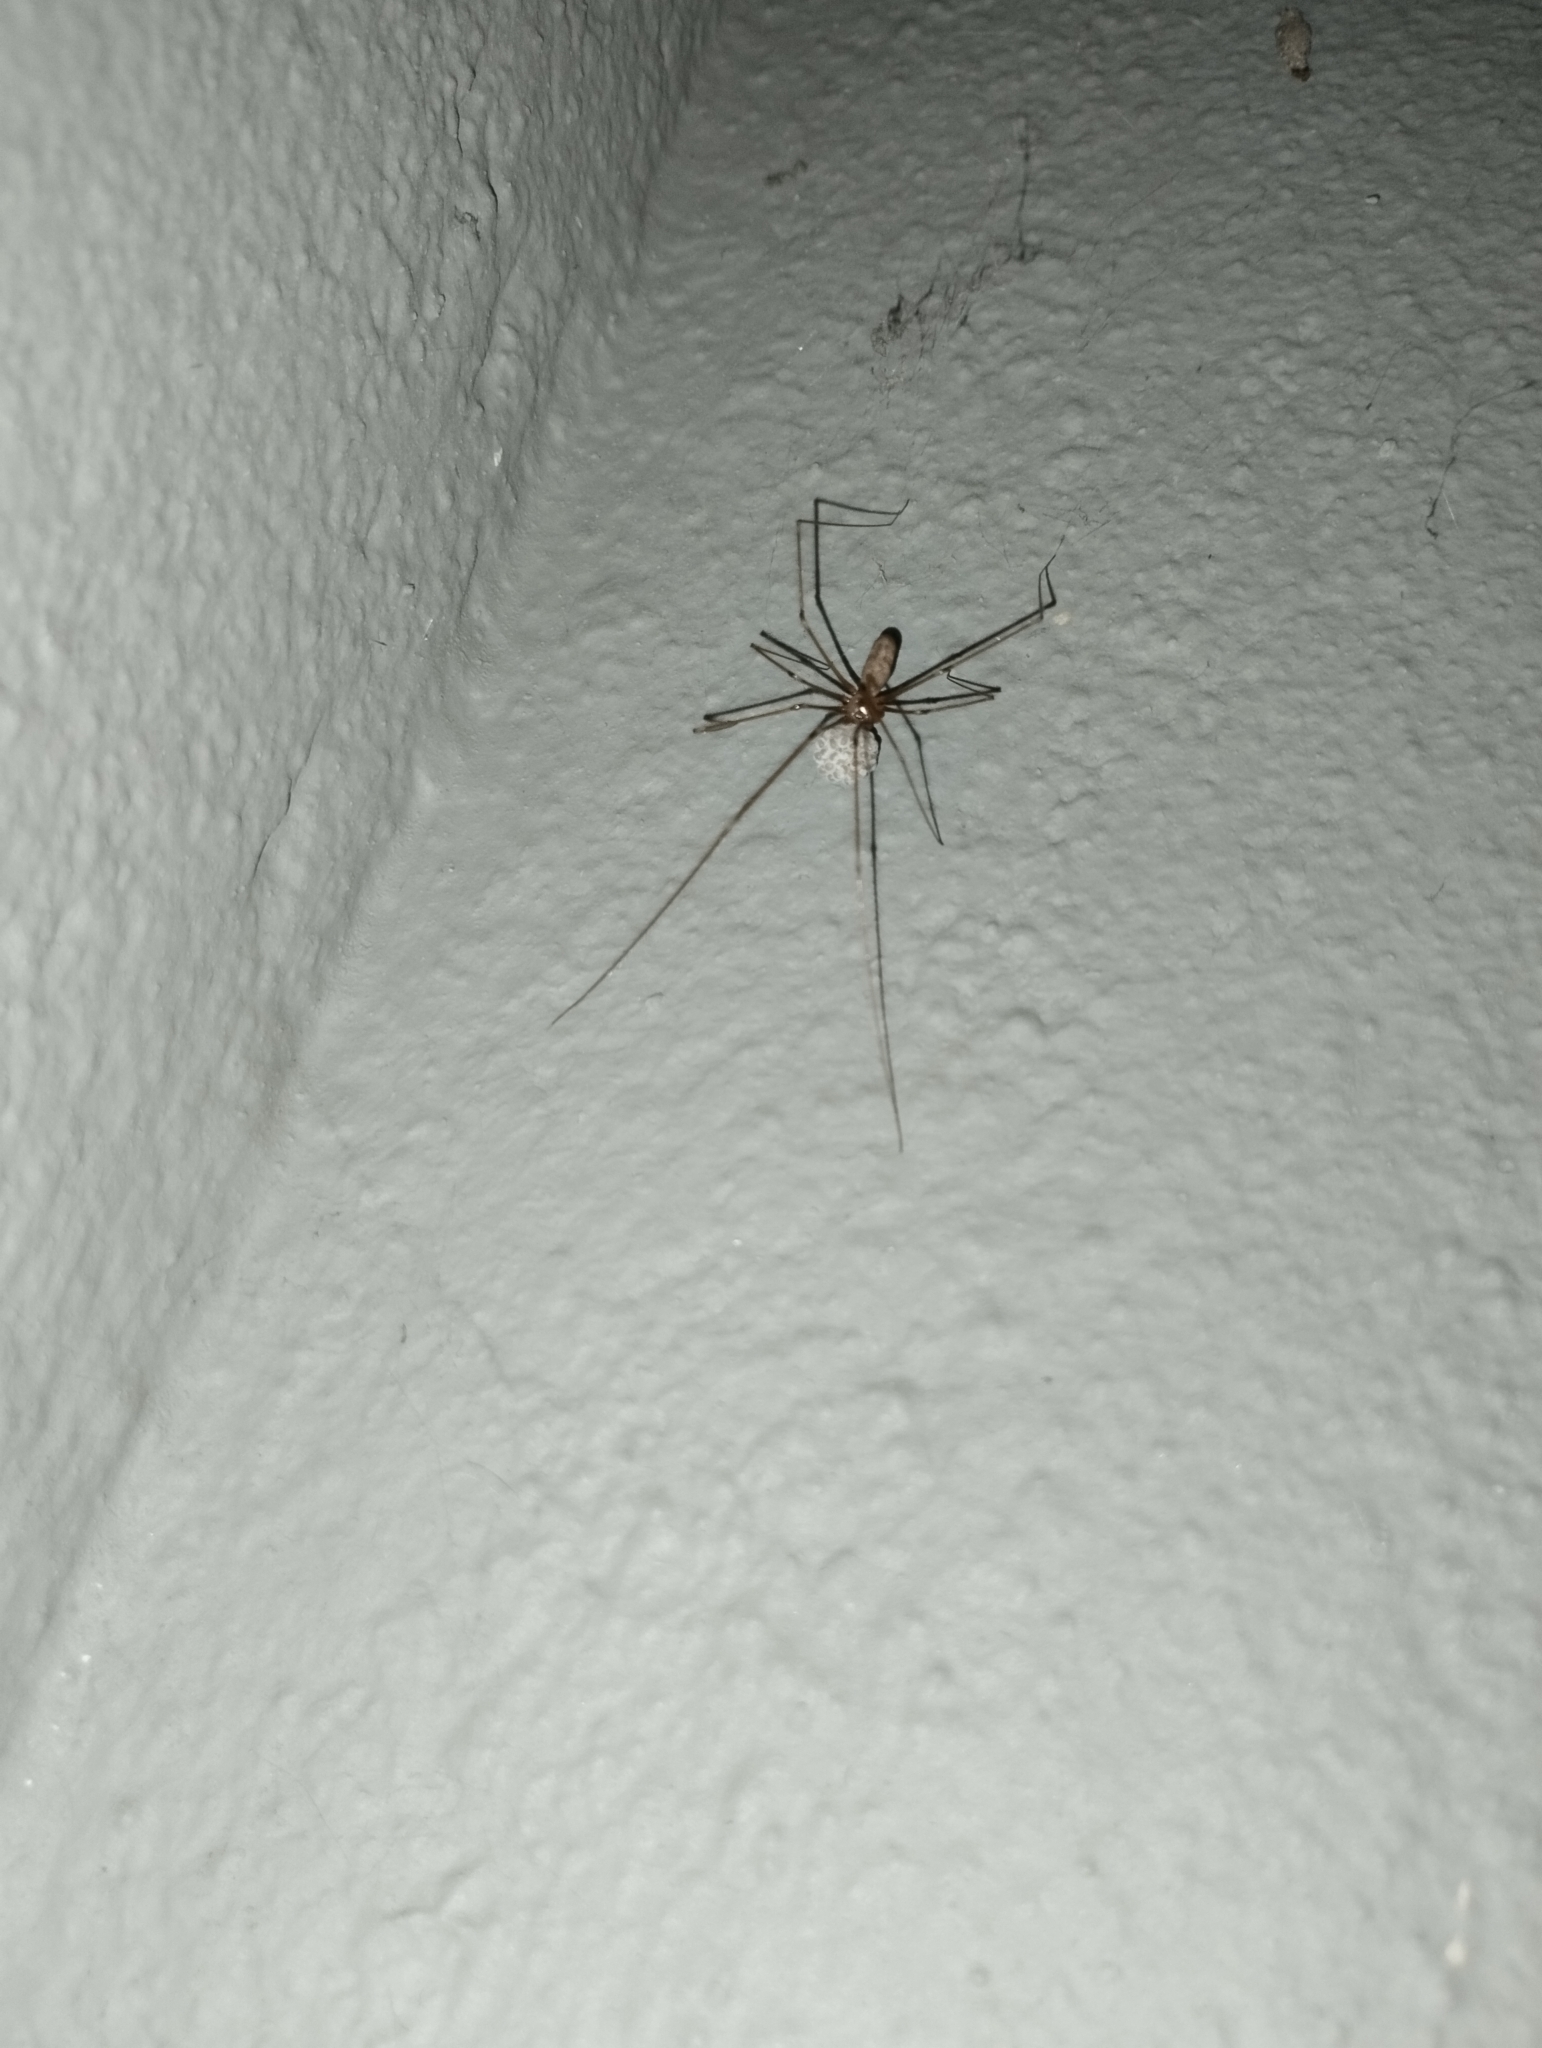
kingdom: Animalia
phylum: Arthropoda
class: Arachnida
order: Araneae
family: Pholcidae
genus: Pholcus
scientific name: Pholcus phalangioides
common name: Longbodied cellar spider
